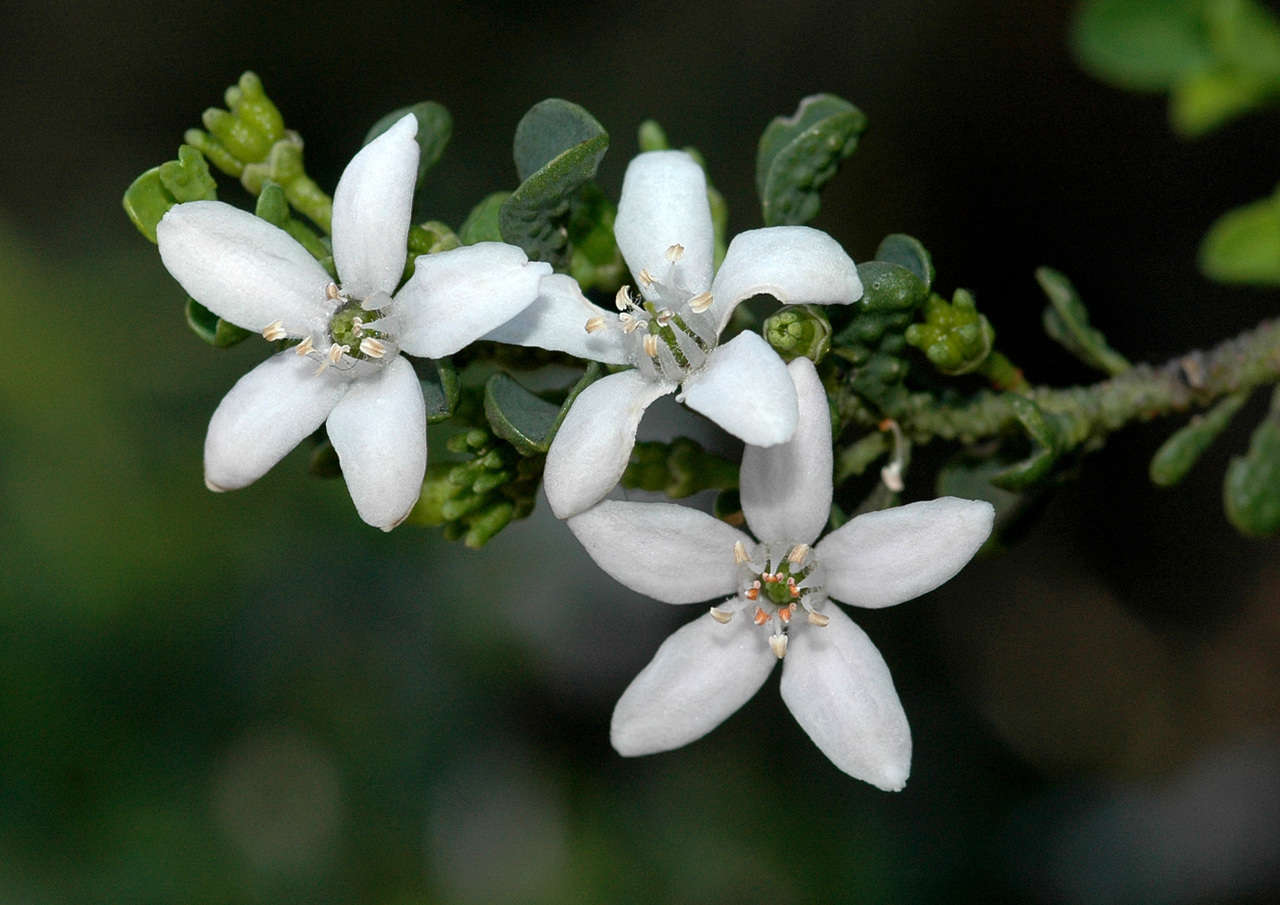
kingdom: Plantae
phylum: Tracheophyta
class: Magnoliopsida
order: Sapindales
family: Rutaceae
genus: Philotheca
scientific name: Philotheca verrucosa
